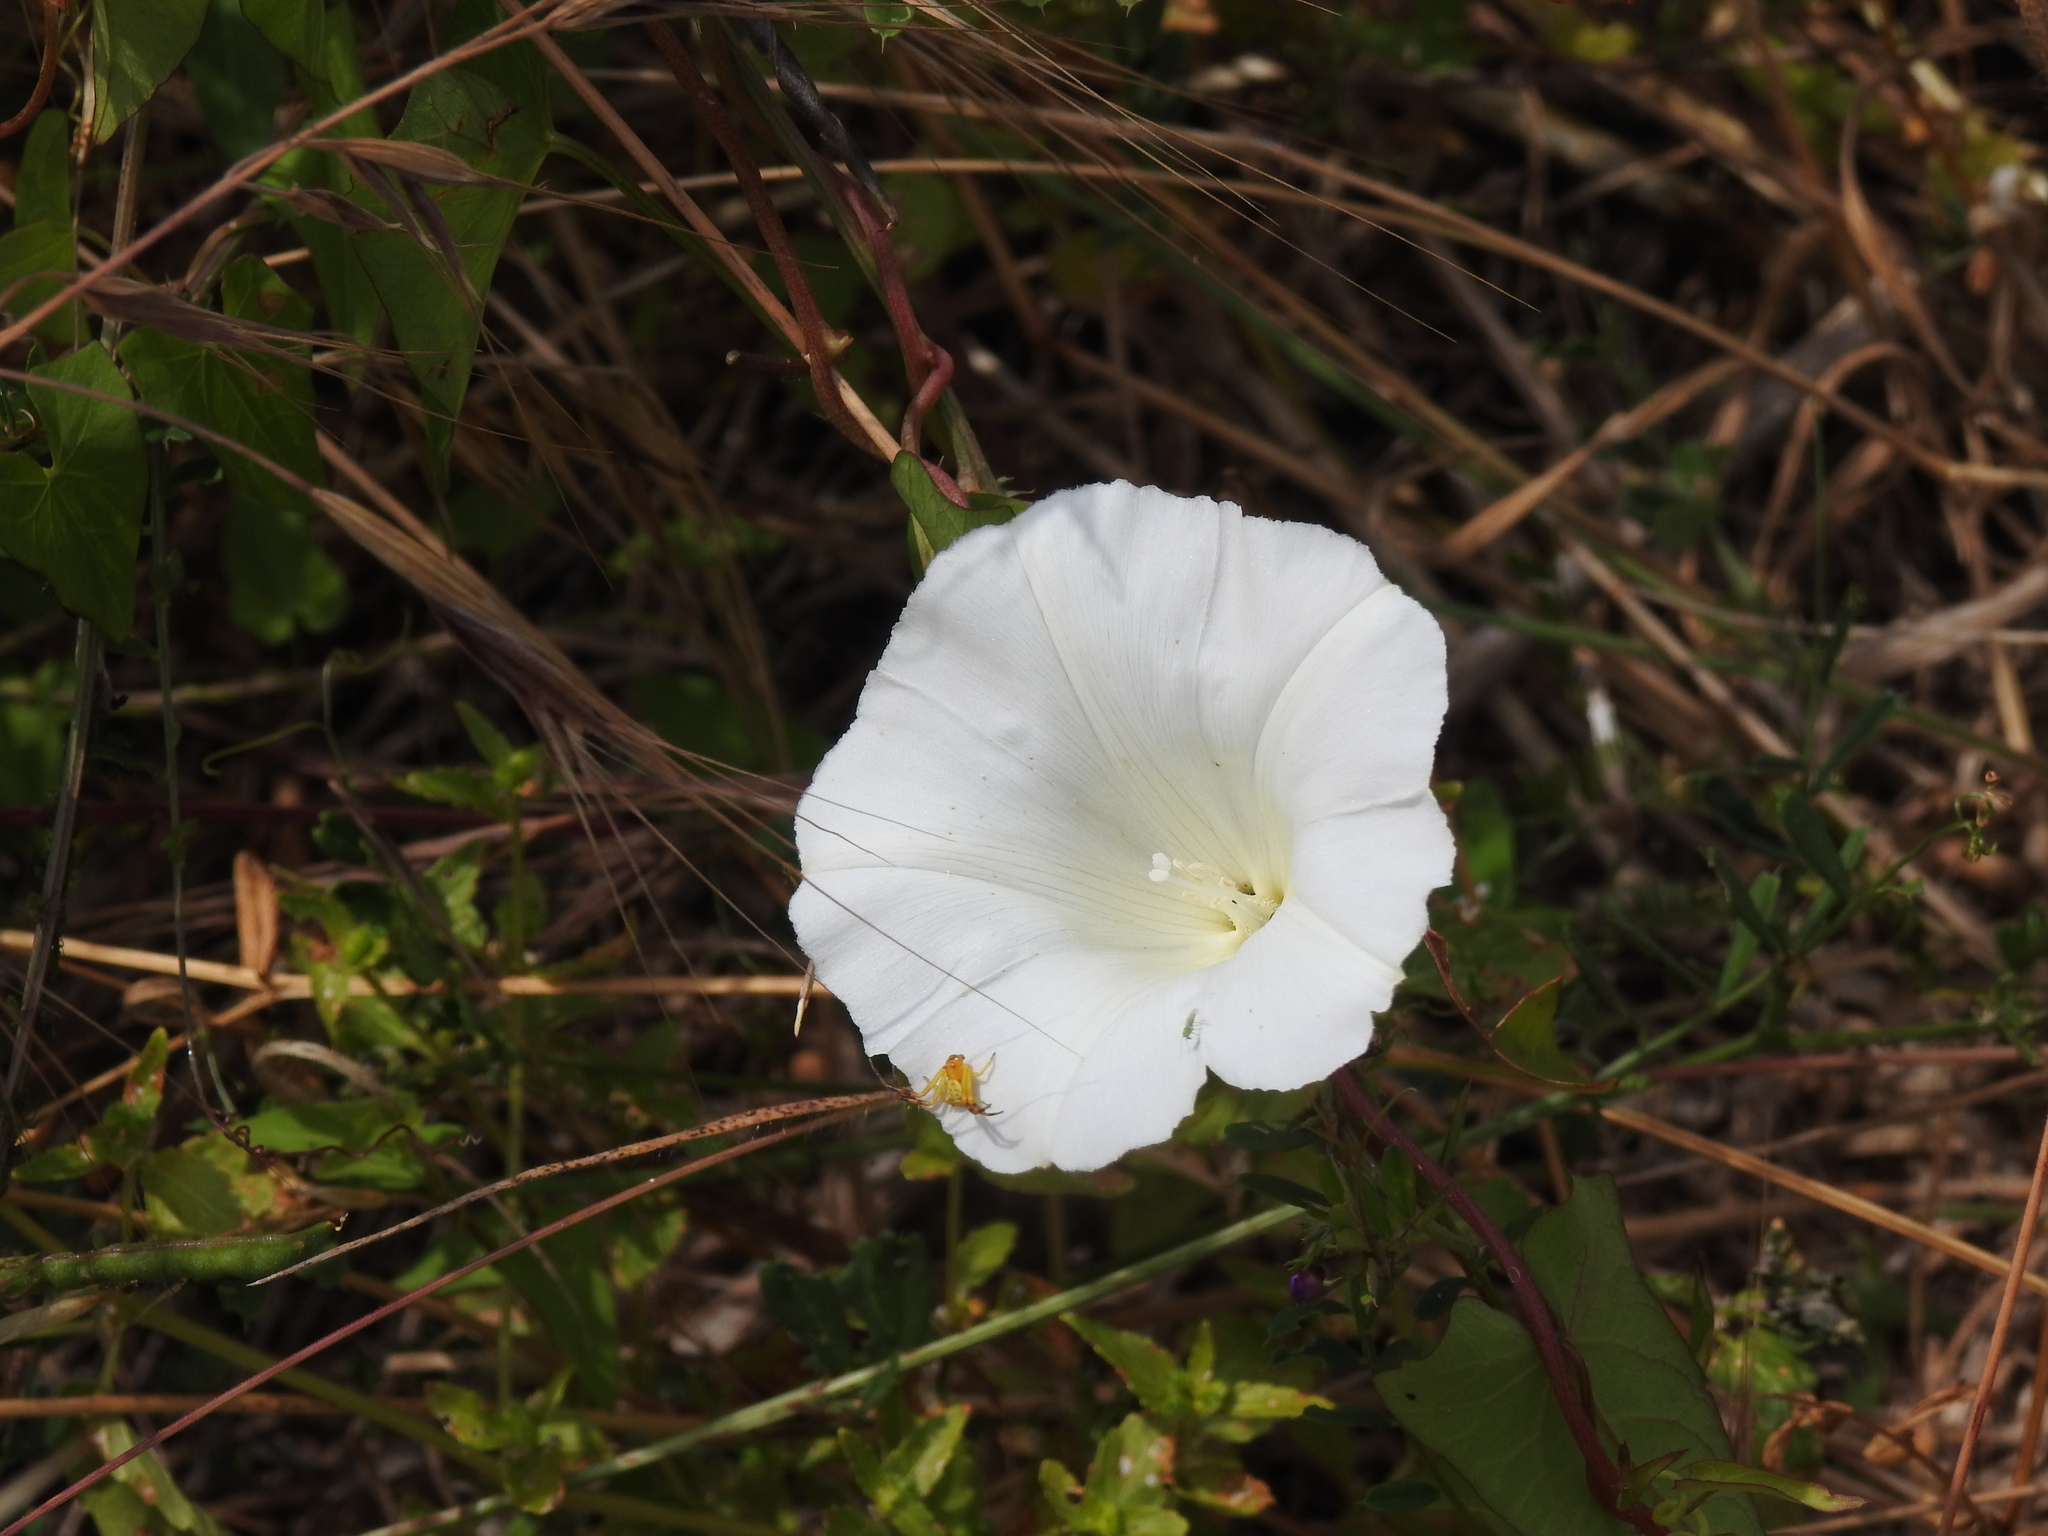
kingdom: Plantae
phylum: Tracheophyta
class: Magnoliopsida
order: Solanales
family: Convolvulaceae
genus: Calystegia
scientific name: Calystegia sepium
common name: Hedge bindweed
